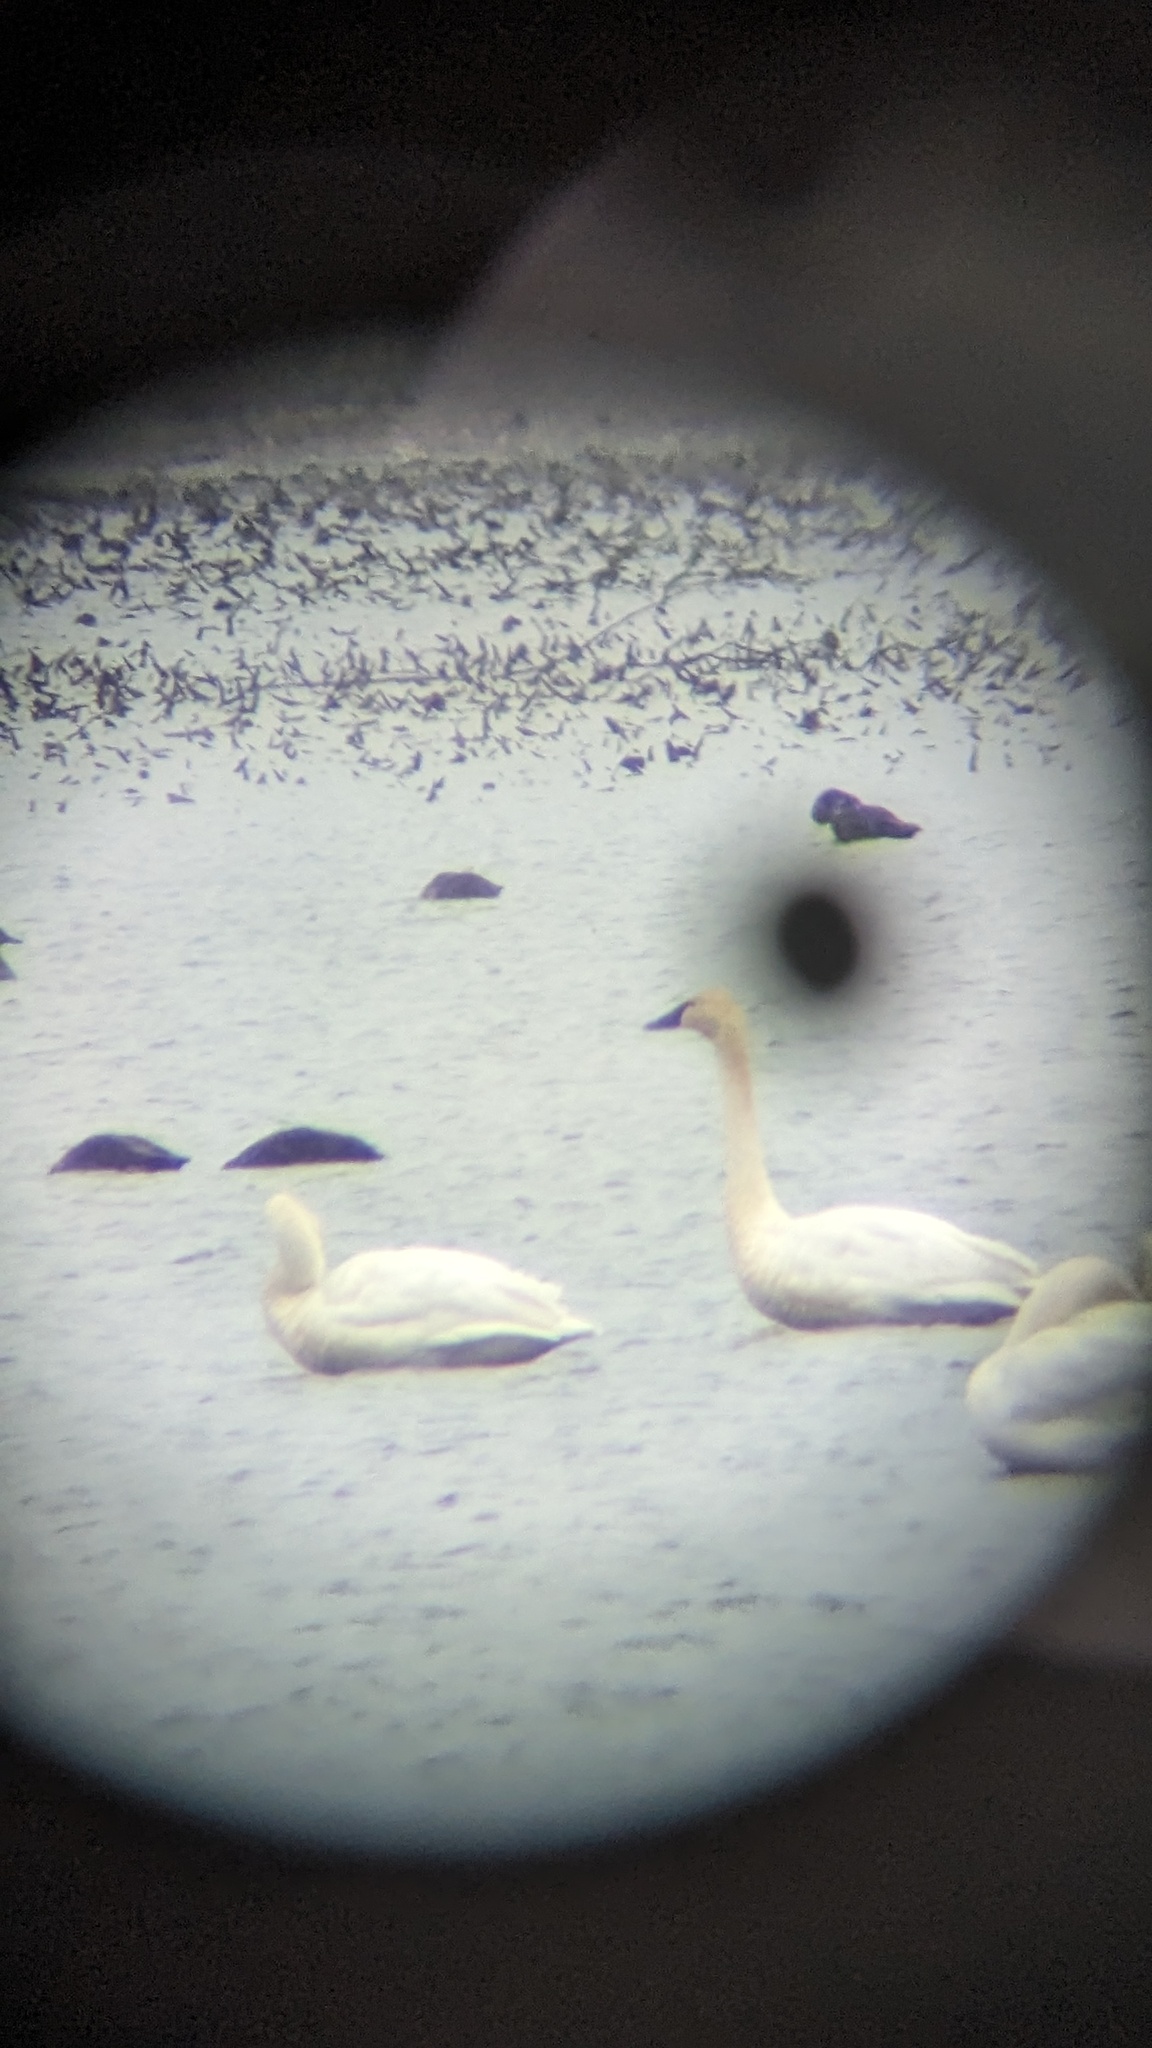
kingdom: Animalia
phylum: Chordata
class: Aves
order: Anseriformes
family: Anatidae
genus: Cygnus
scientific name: Cygnus columbianus
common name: Tundra swan
